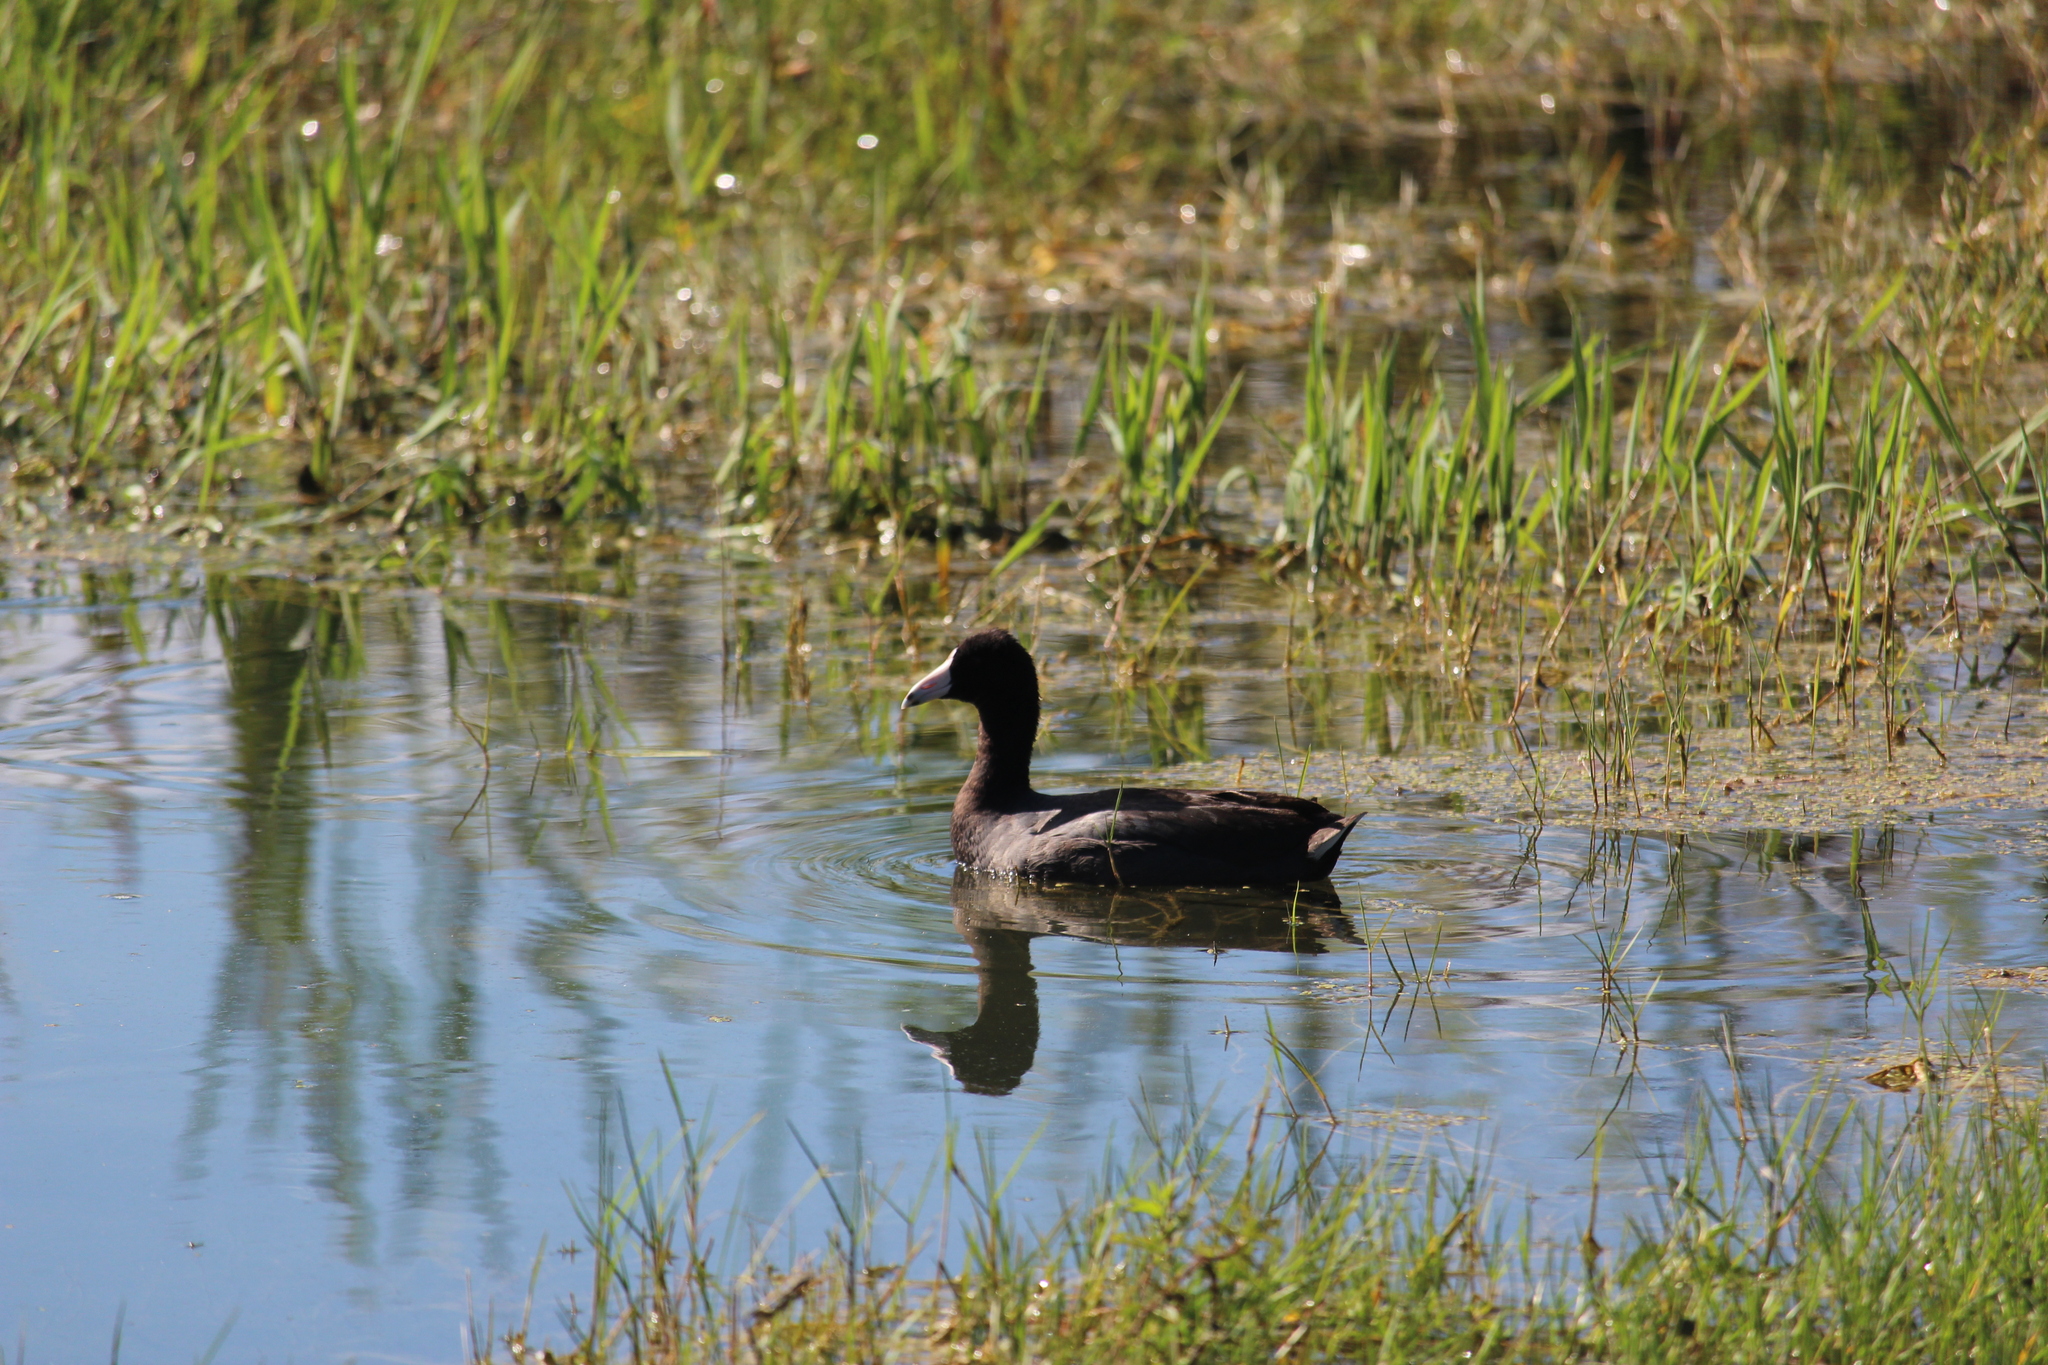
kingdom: Animalia
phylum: Chordata
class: Aves
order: Gruiformes
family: Rallidae
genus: Fulica
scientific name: Fulica americana
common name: American coot
